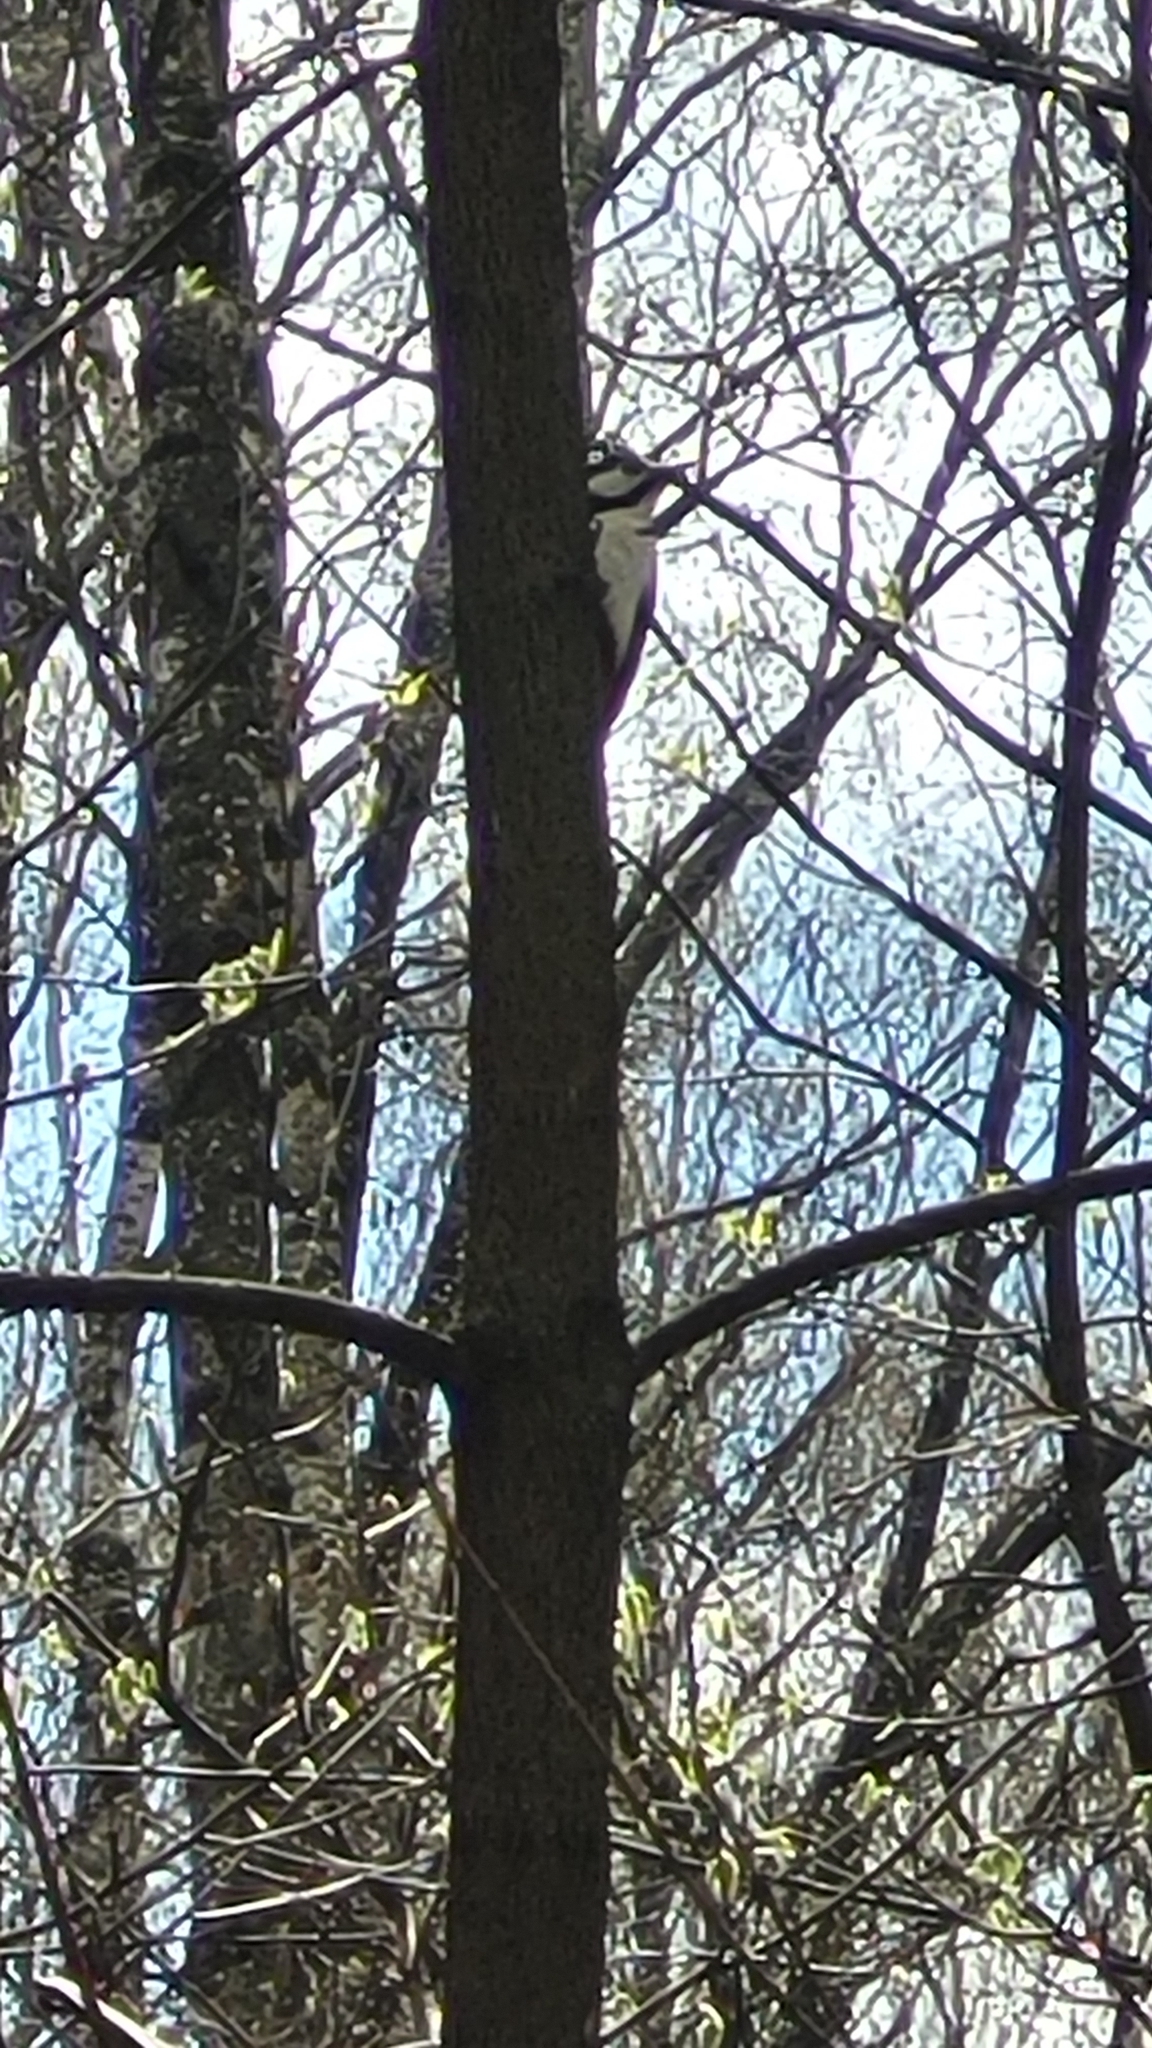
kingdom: Animalia
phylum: Chordata
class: Aves
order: Piciformes
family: Picidae
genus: Dendrocopos
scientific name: Dendrocopos major
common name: Great spotted woodpecker
